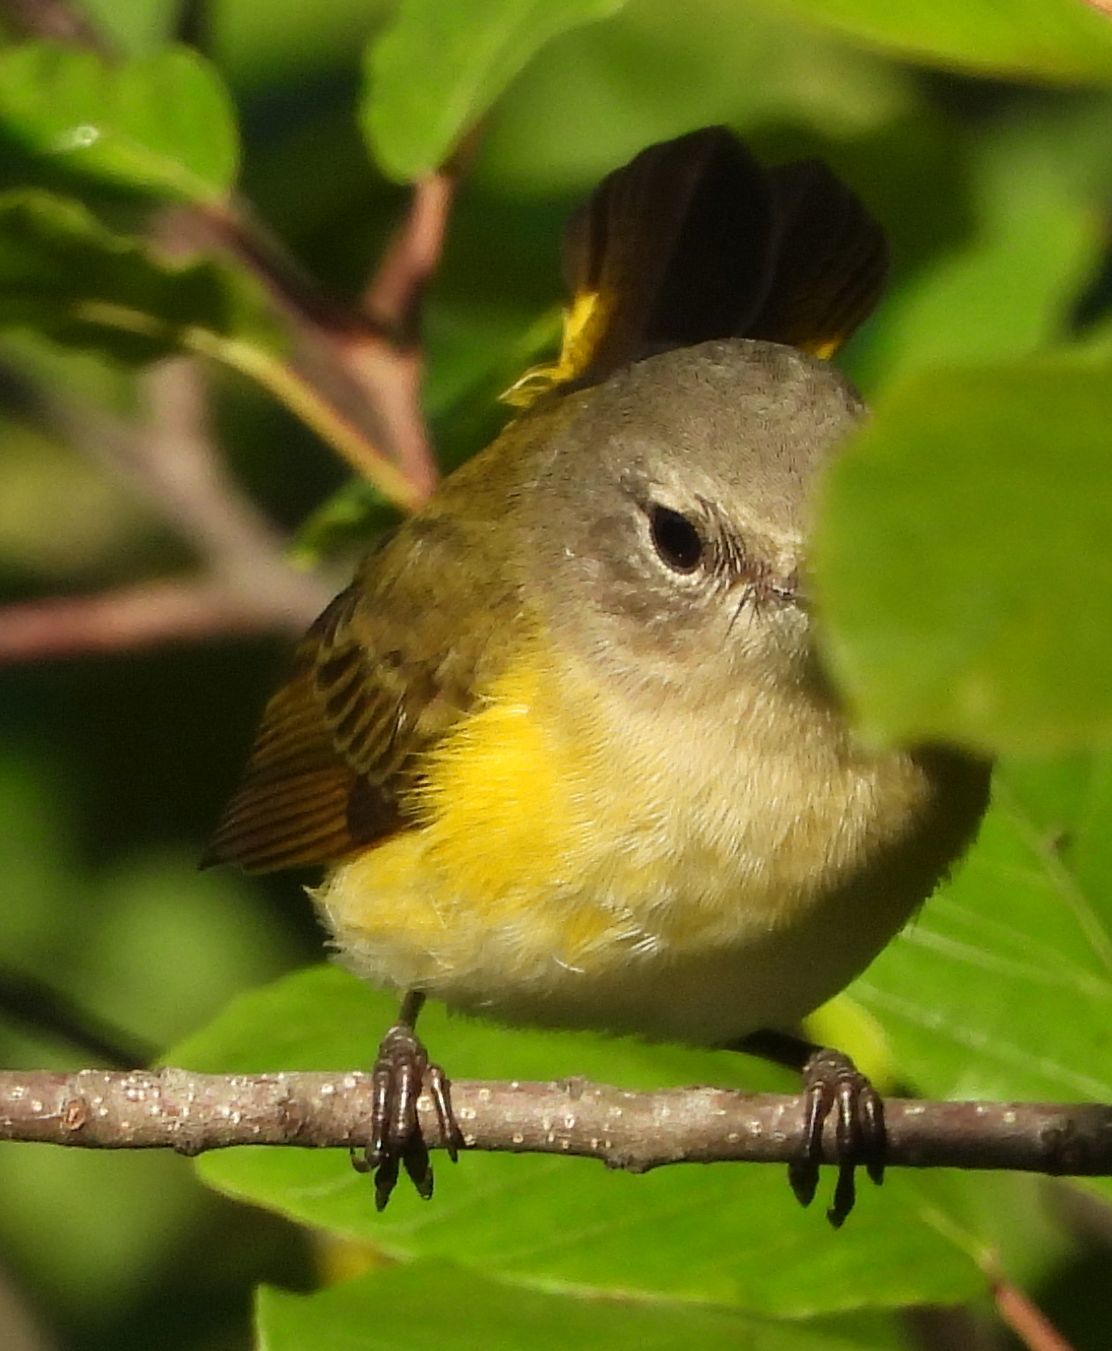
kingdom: Animalia
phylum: Chordata
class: Aves
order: Passeriformes
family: Parulidae
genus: Setophaga
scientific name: Setophaga ruticilla
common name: American redstart
